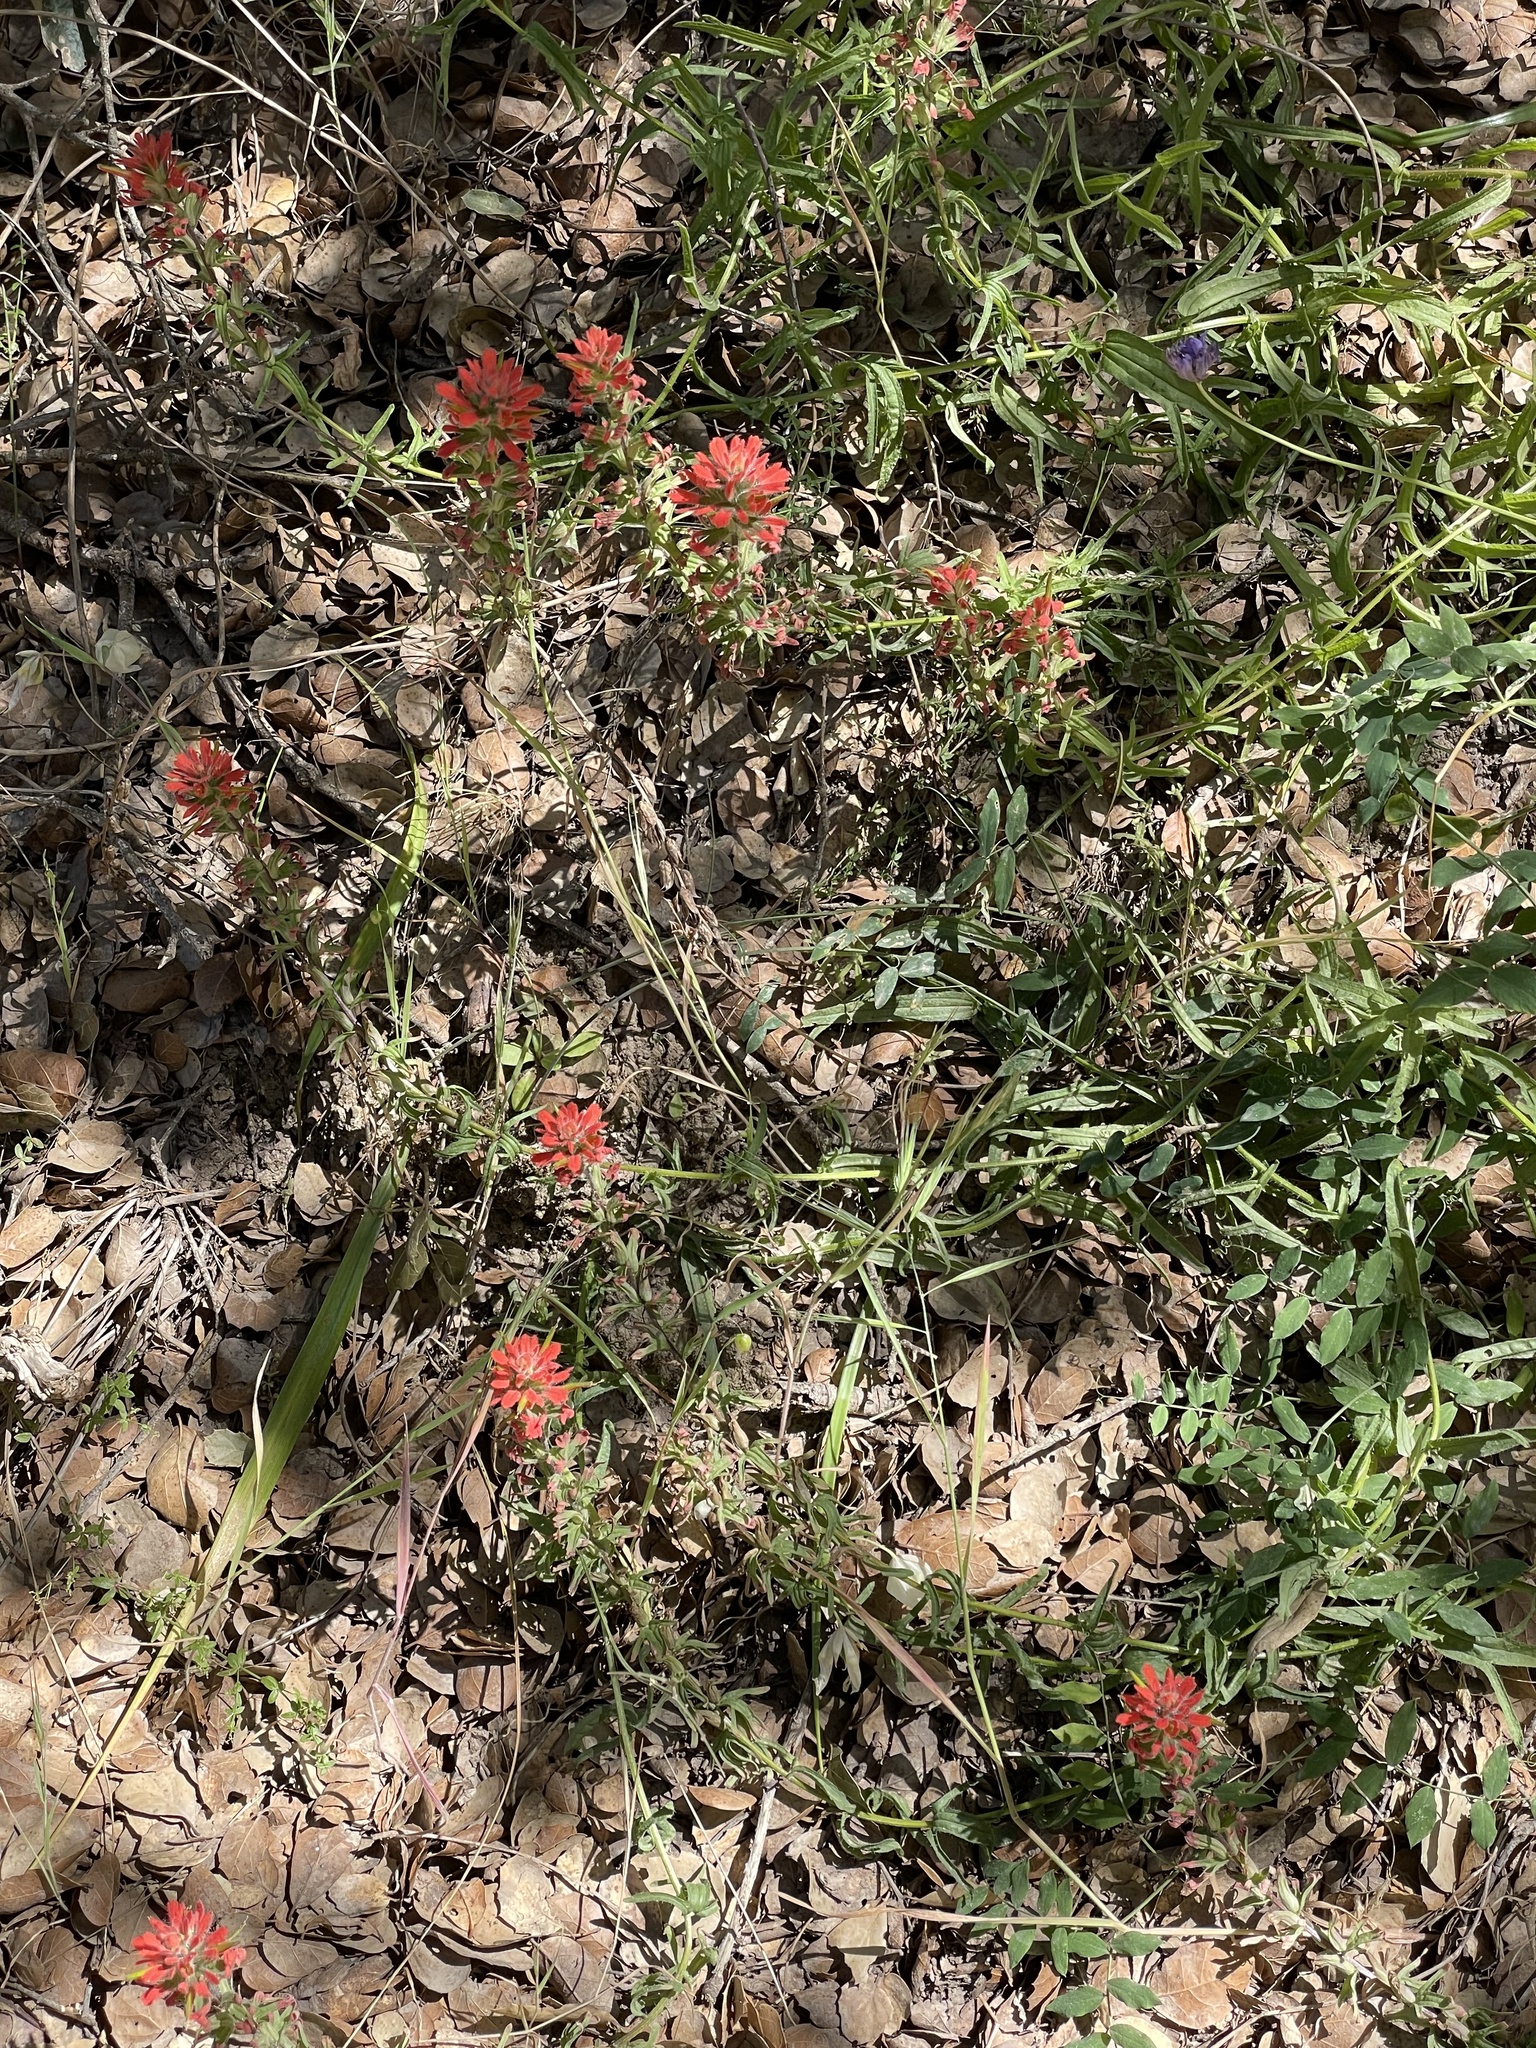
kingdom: Plantae
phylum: Tracheophyta
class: Magnoliopsida
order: Lamiales
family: Orobanchaceae
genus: Castilleja
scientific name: Castilleja affinis
